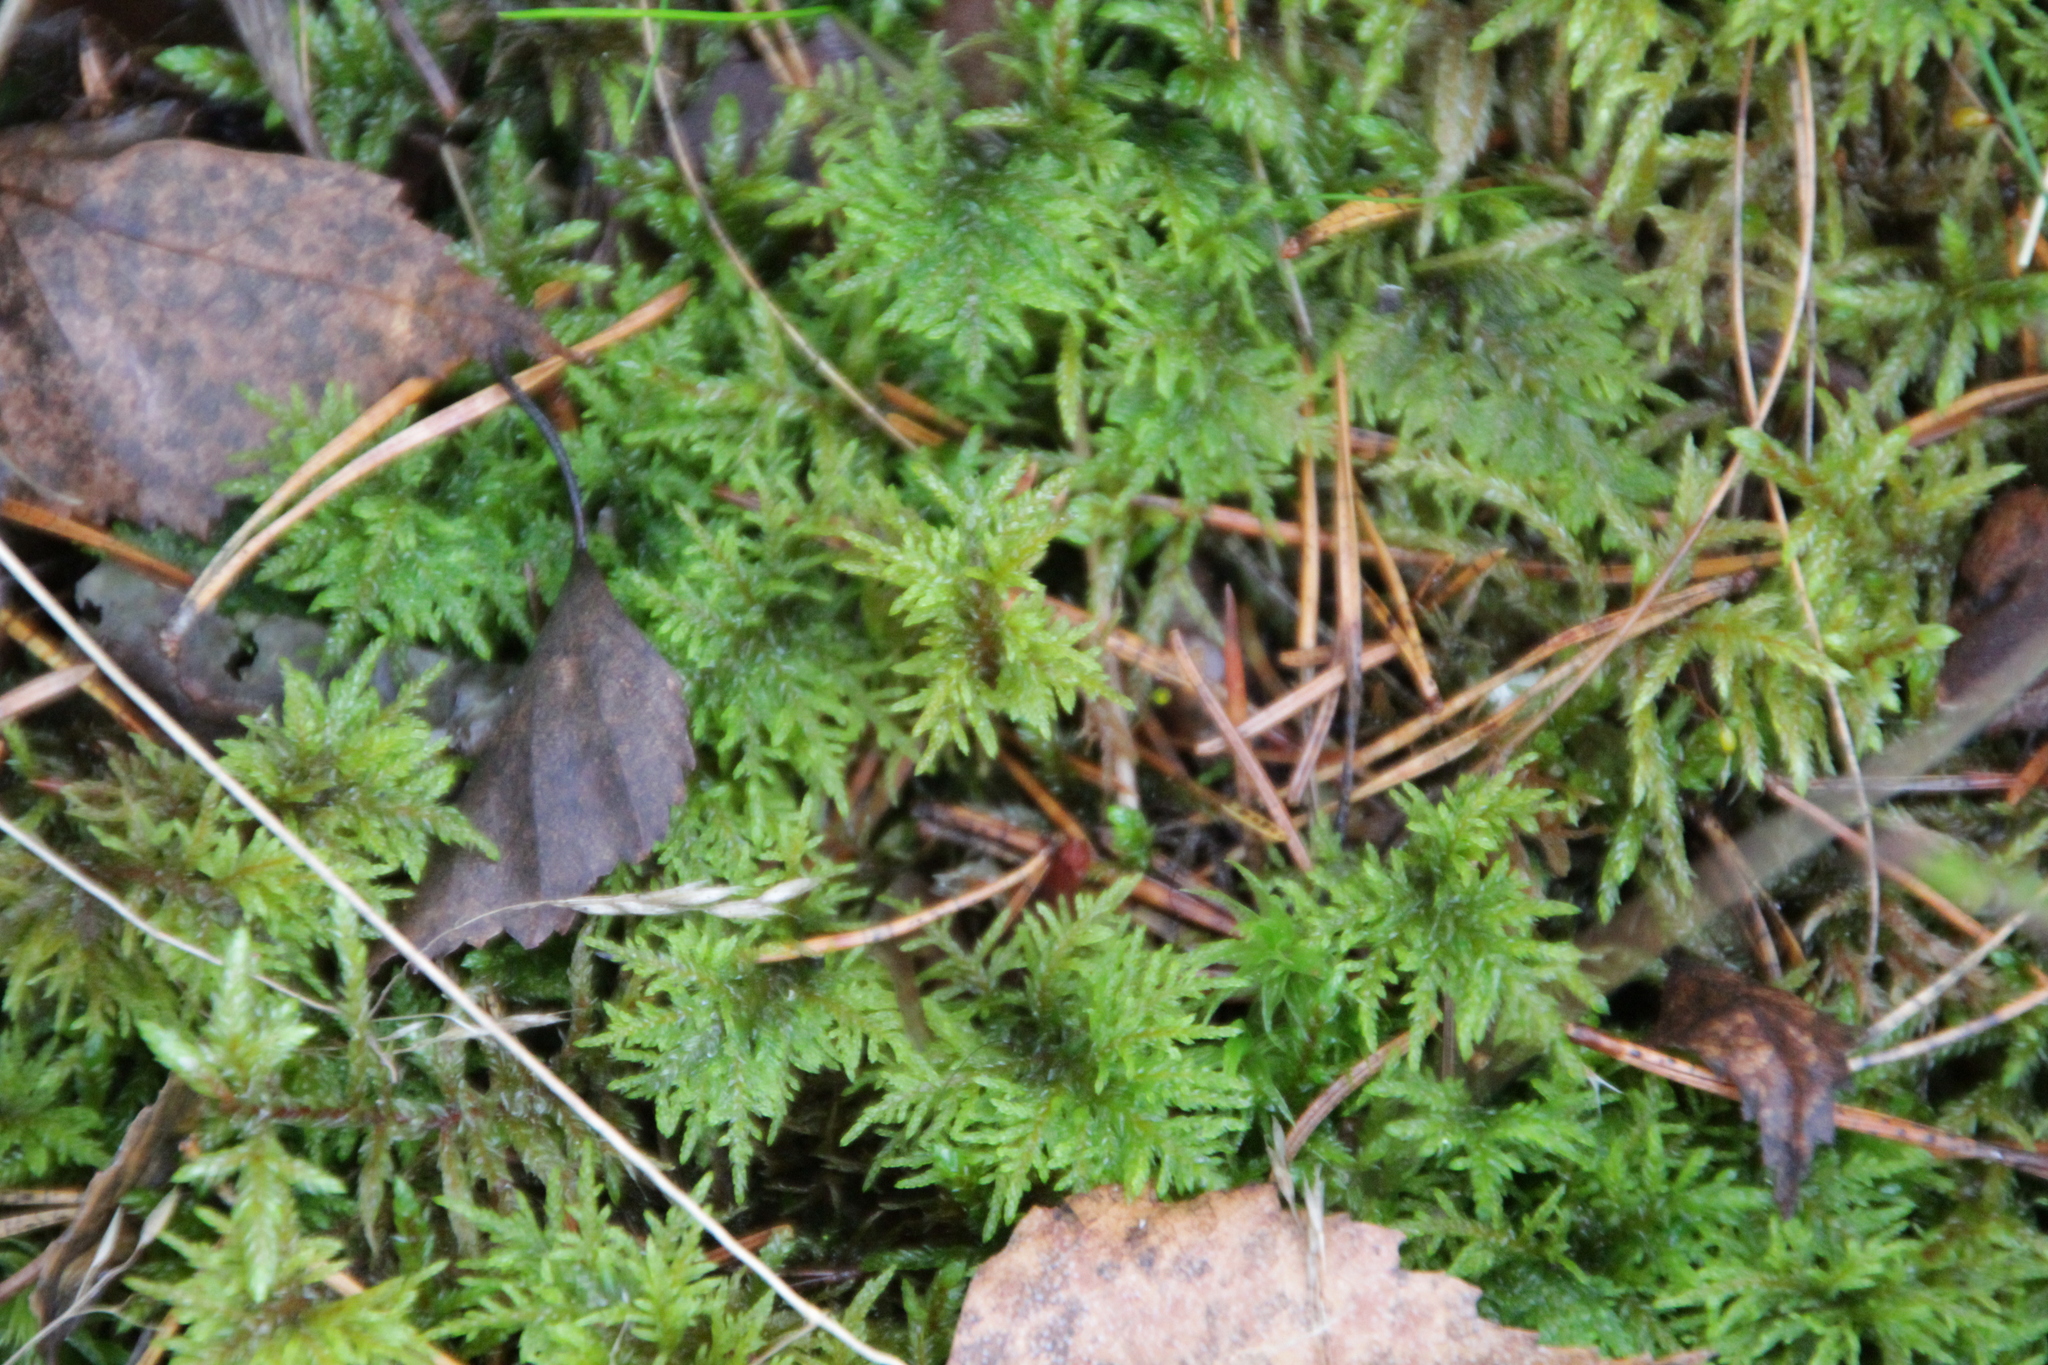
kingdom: Plantae
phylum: Bryophyta
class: Bryopsida
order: Hypnales
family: Hylocomiaceae
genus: Hylocomium
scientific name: Hylocomium splendens
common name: Stairstep moss
